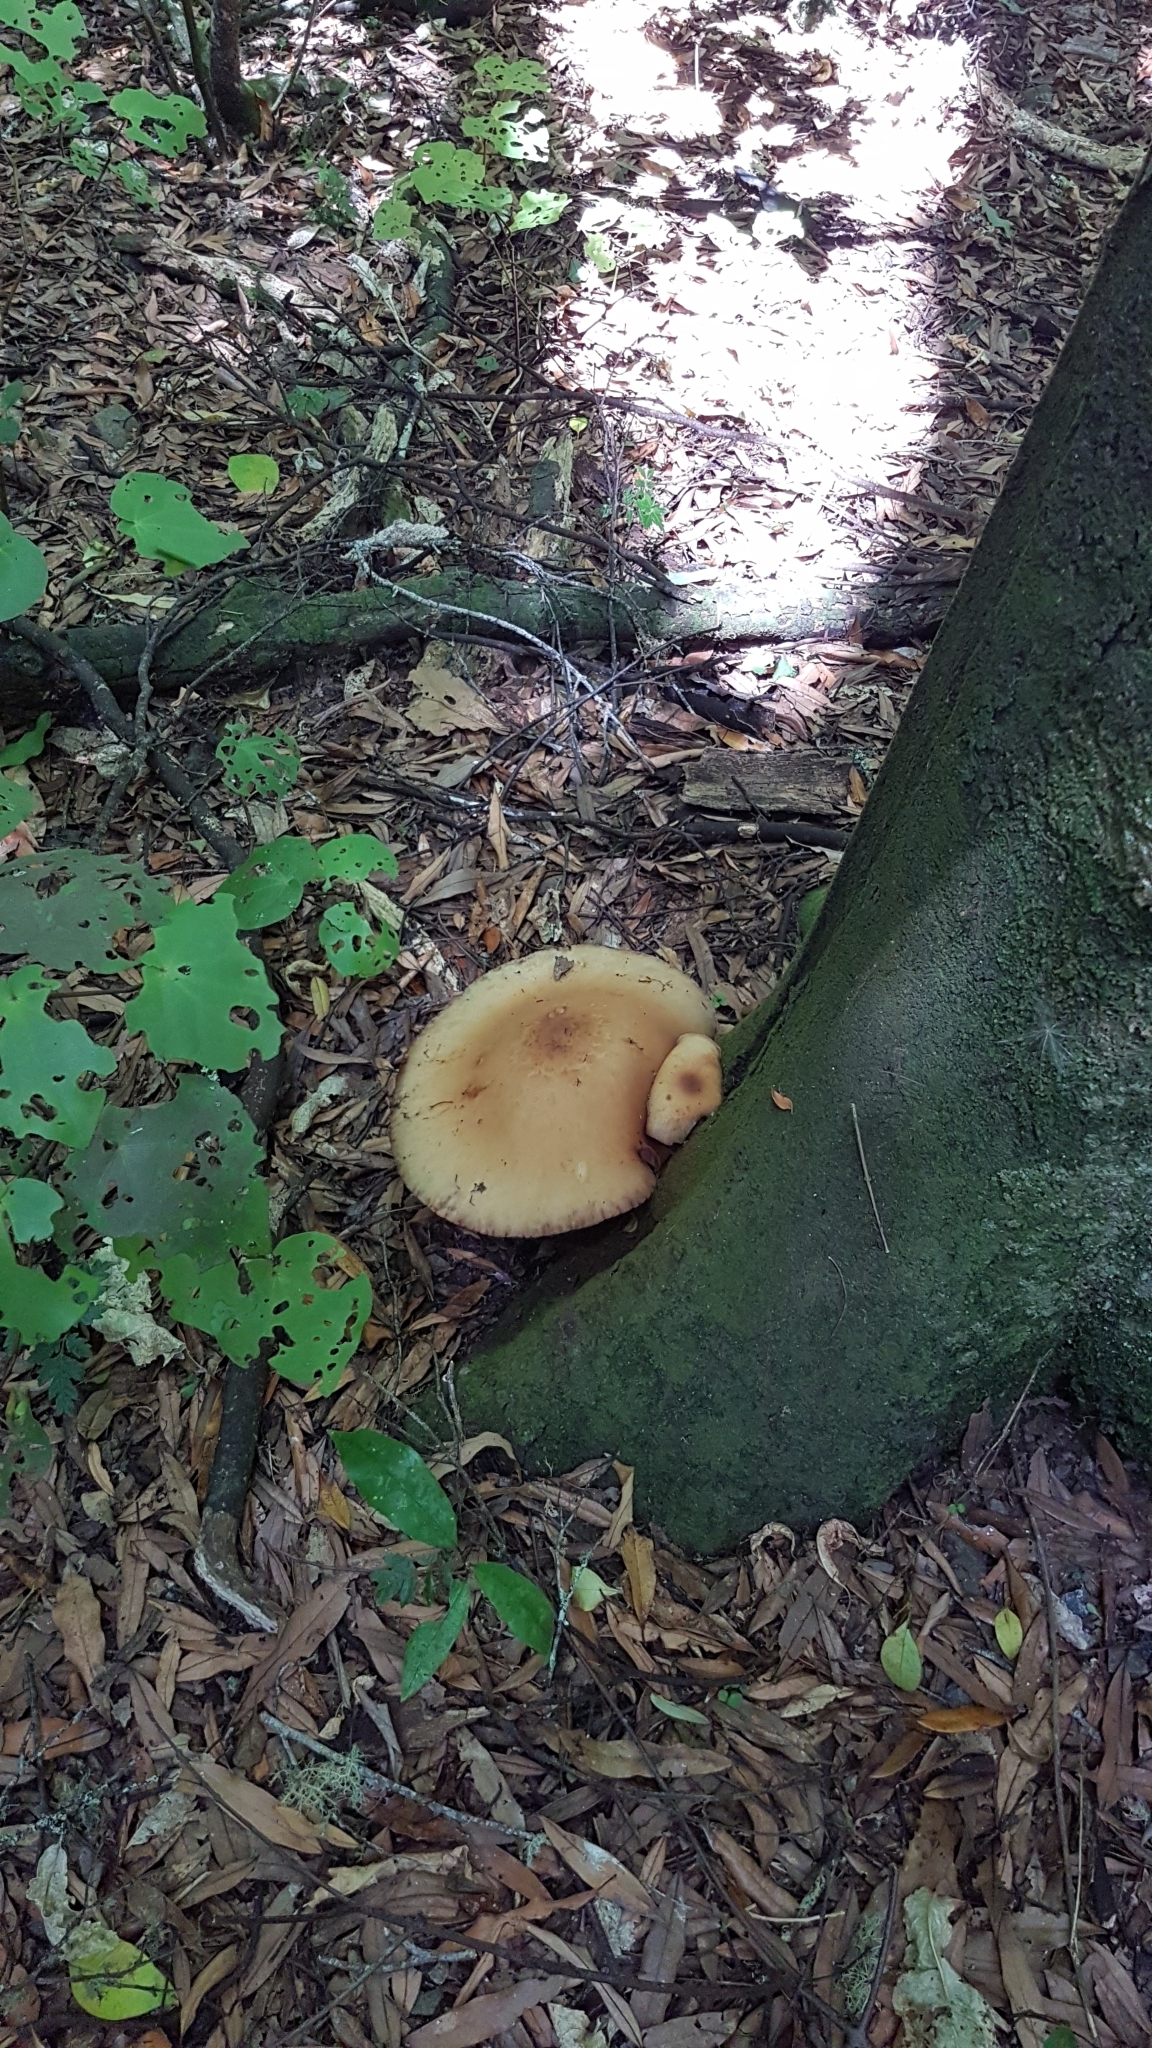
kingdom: Fungi
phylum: Basidiomycota
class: Agaricomycetes
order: Agaricales
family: Tubariaceae
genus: Cyclocybe
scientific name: Cyclocybe parasitica
